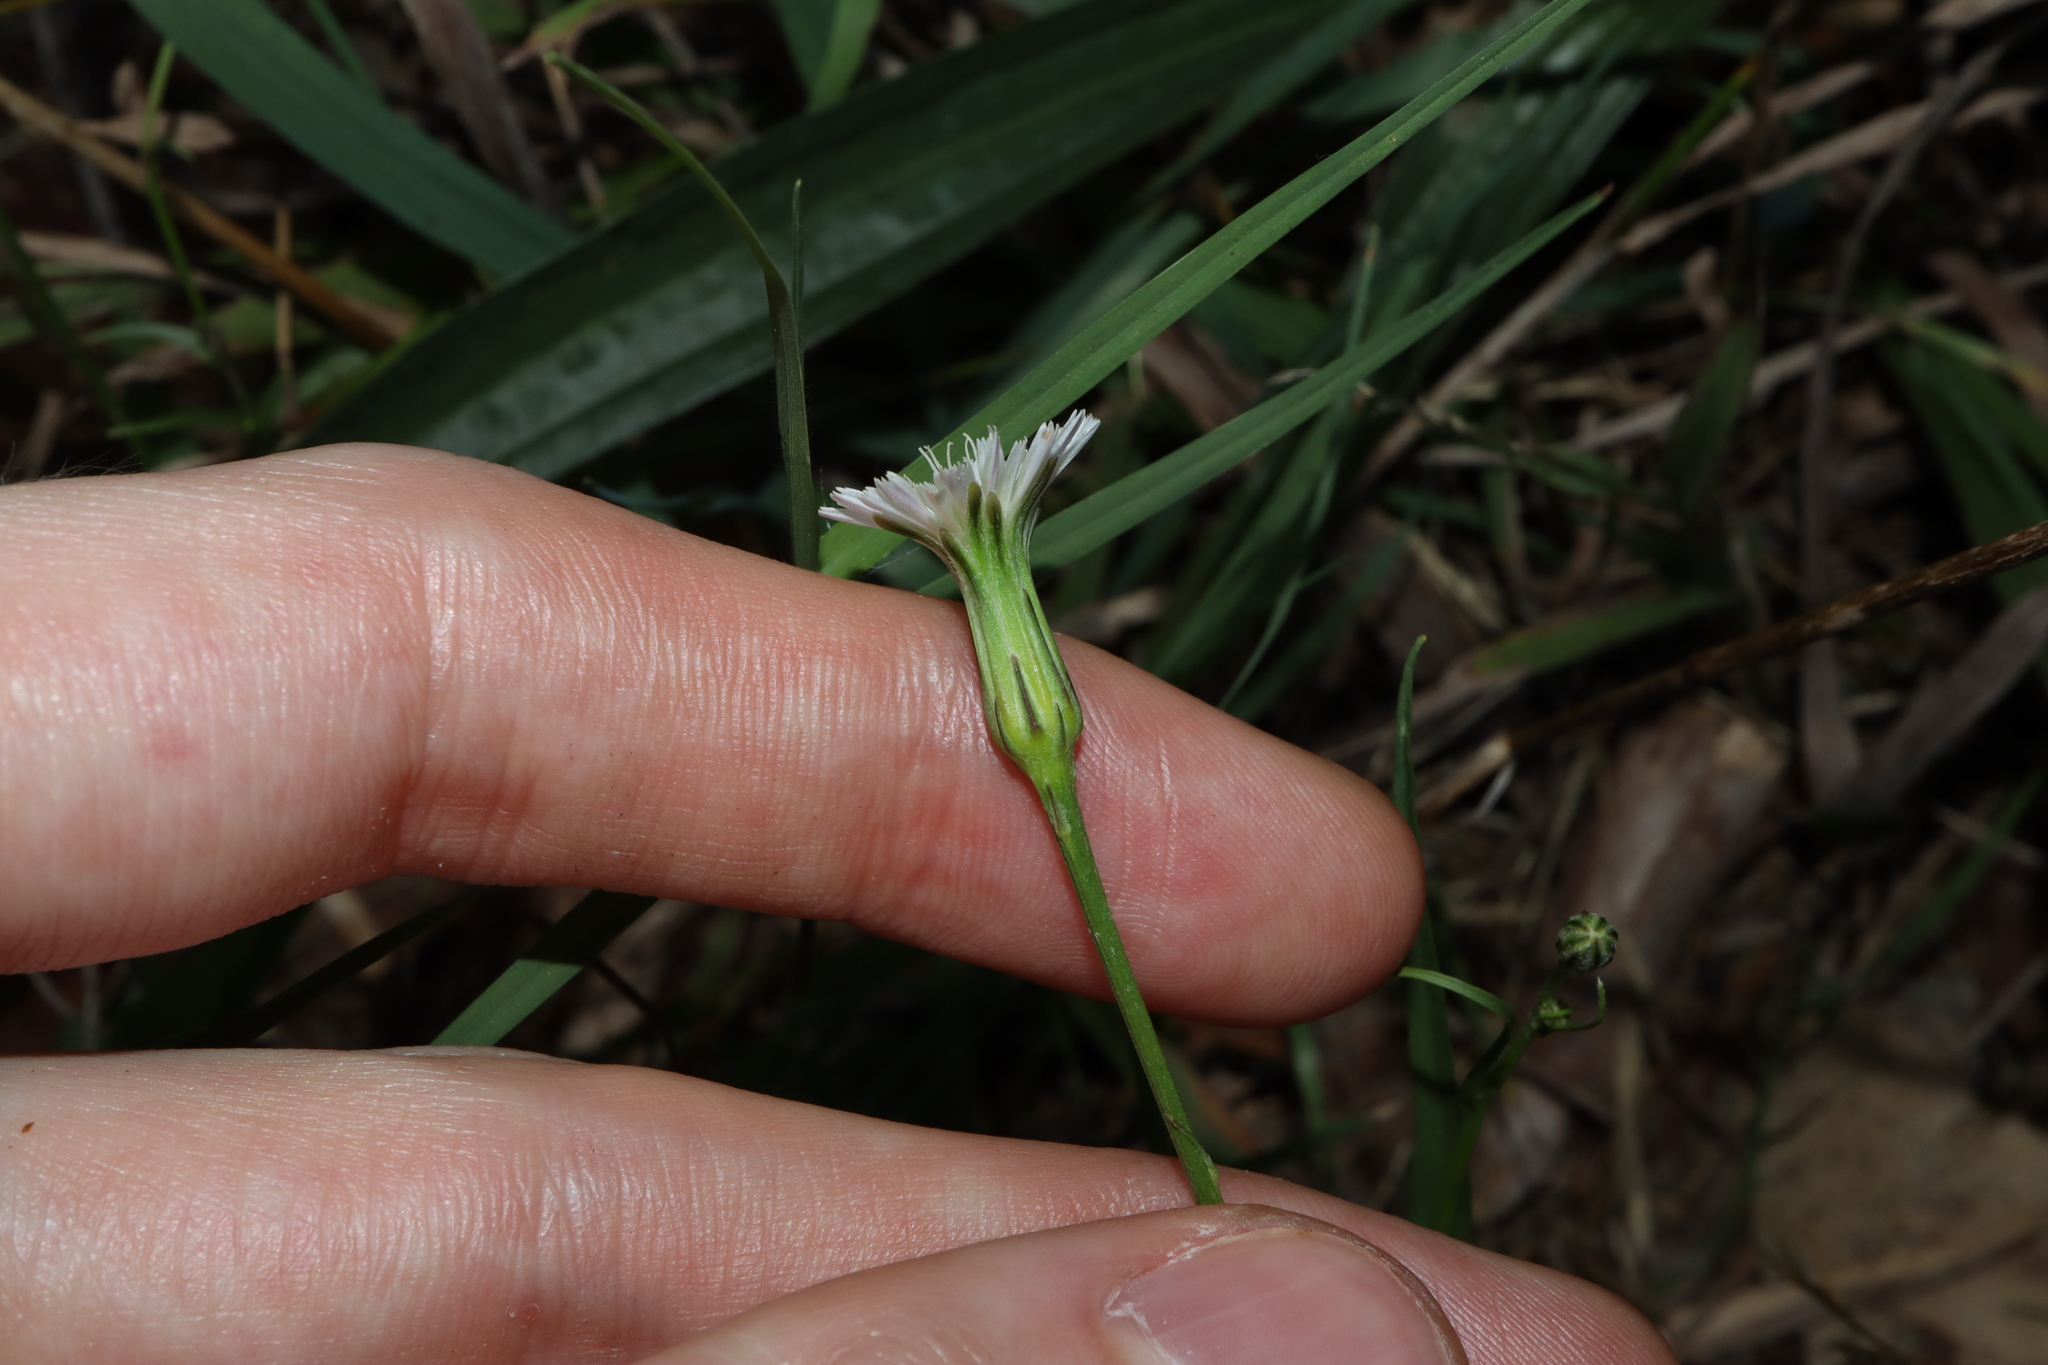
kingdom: Plantae
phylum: Tracheophyta
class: Magnoliopsida
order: Asterales
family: Asteraceae
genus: Hypochaeris
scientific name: Hypochaeris albiflora
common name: White flatweed
